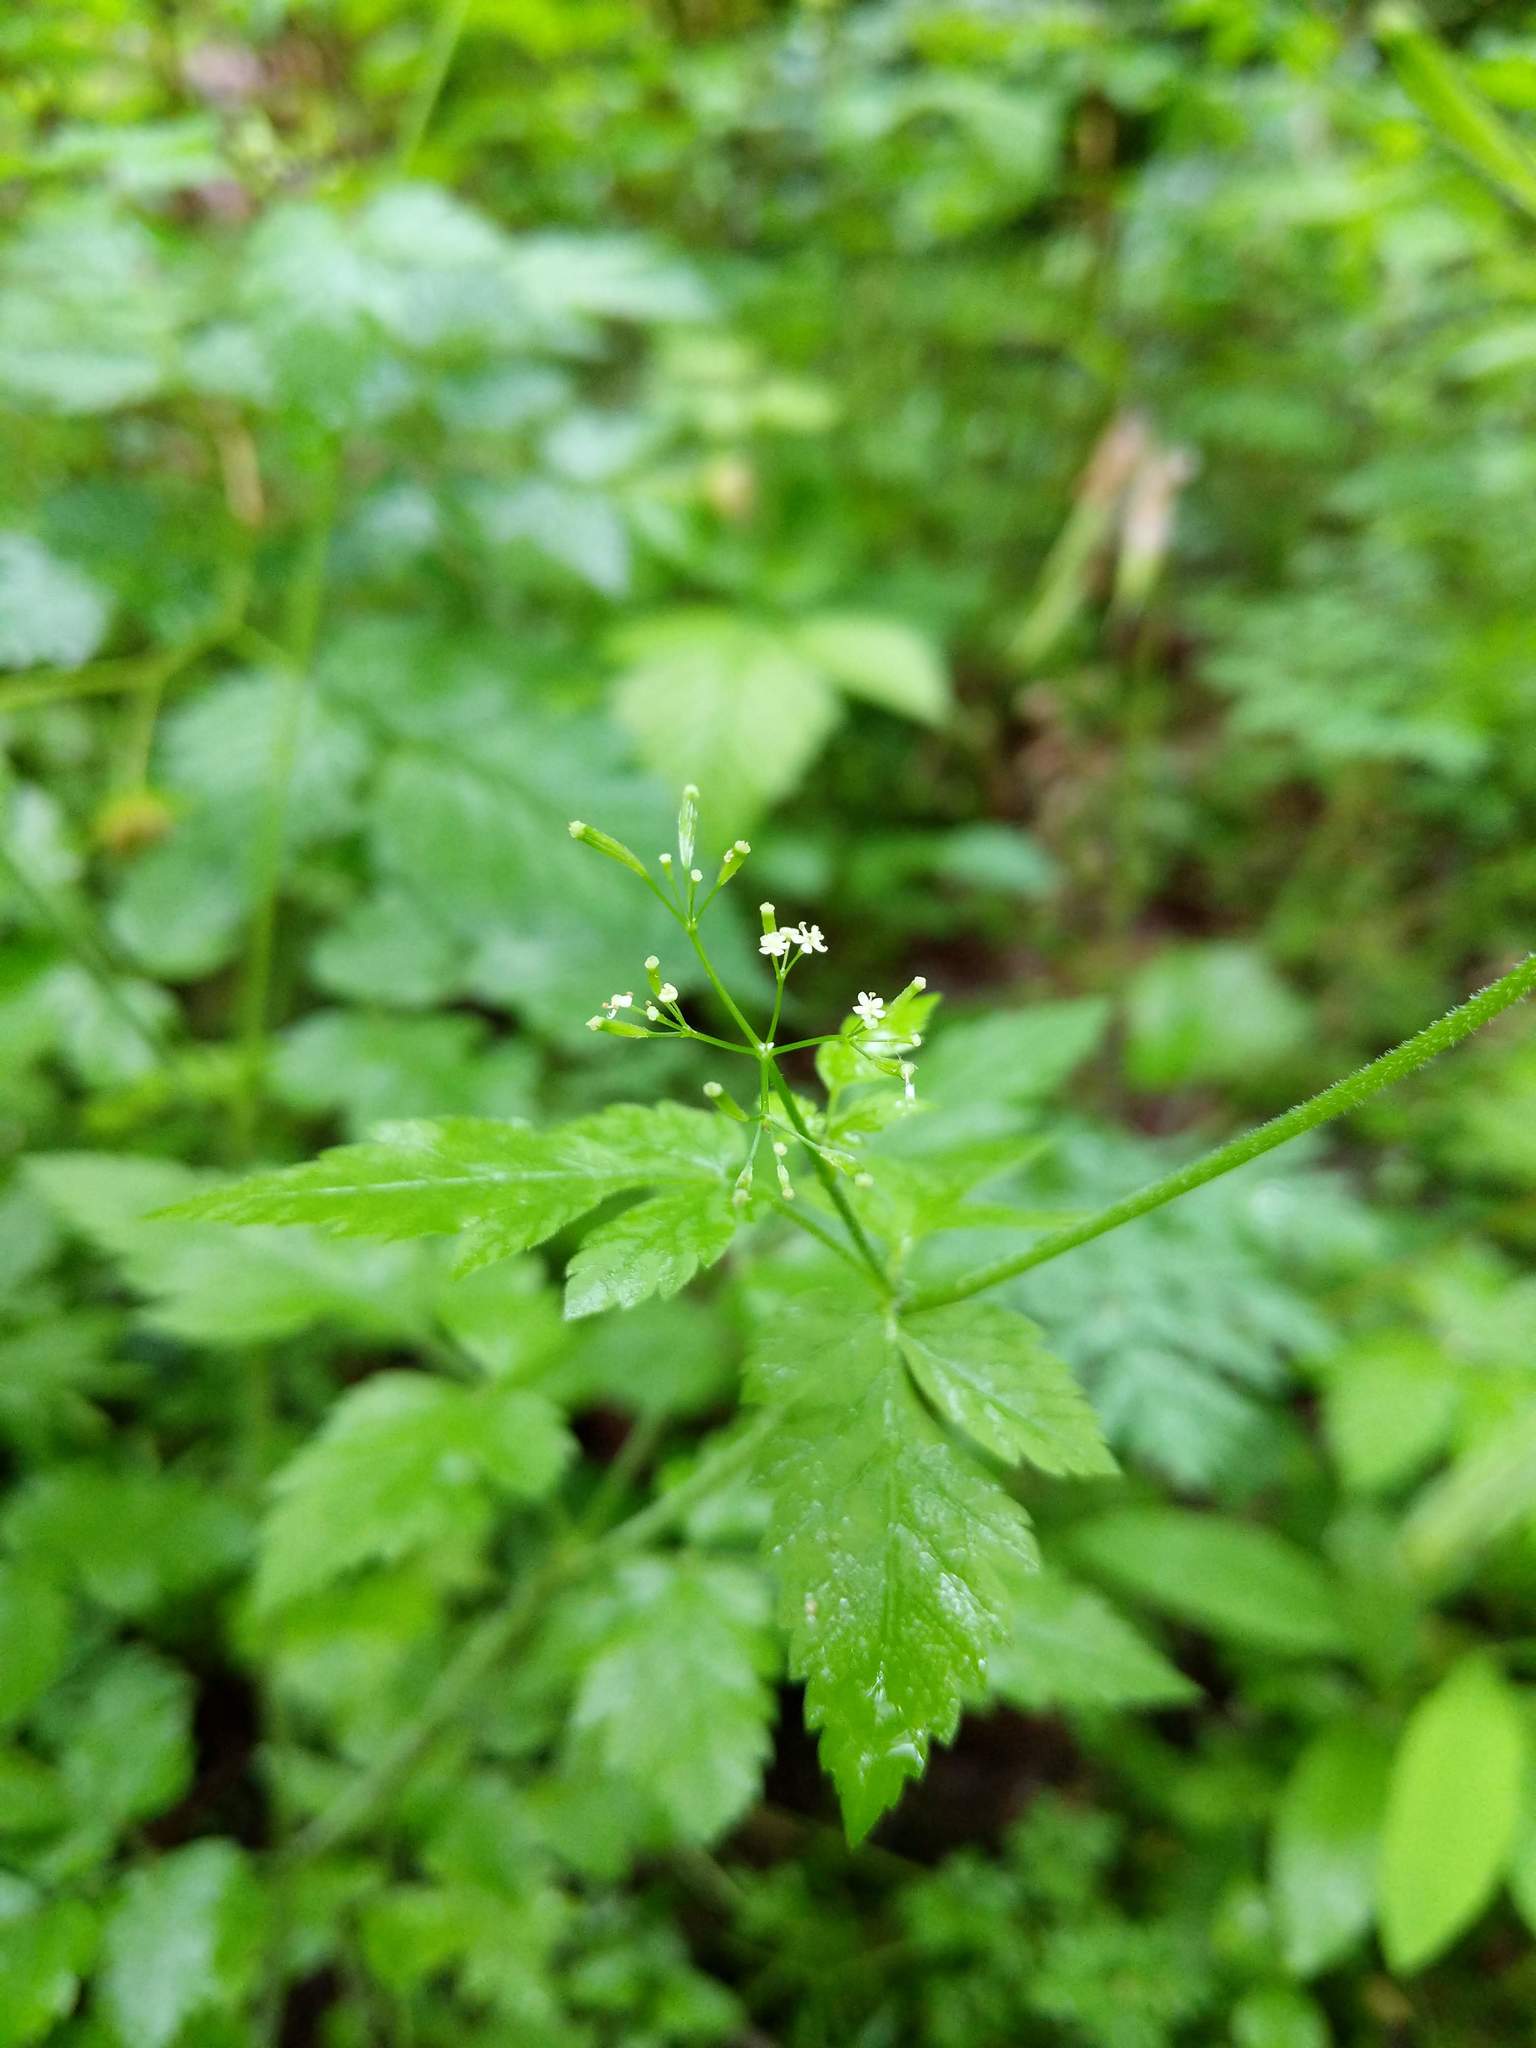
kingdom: Plantae
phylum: Tracheophyta
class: Magnoliopsida
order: Apiales
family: Apiaceae
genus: Osmorhiza
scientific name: Osmorhiza berteroi
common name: Mountain sweet cicely
